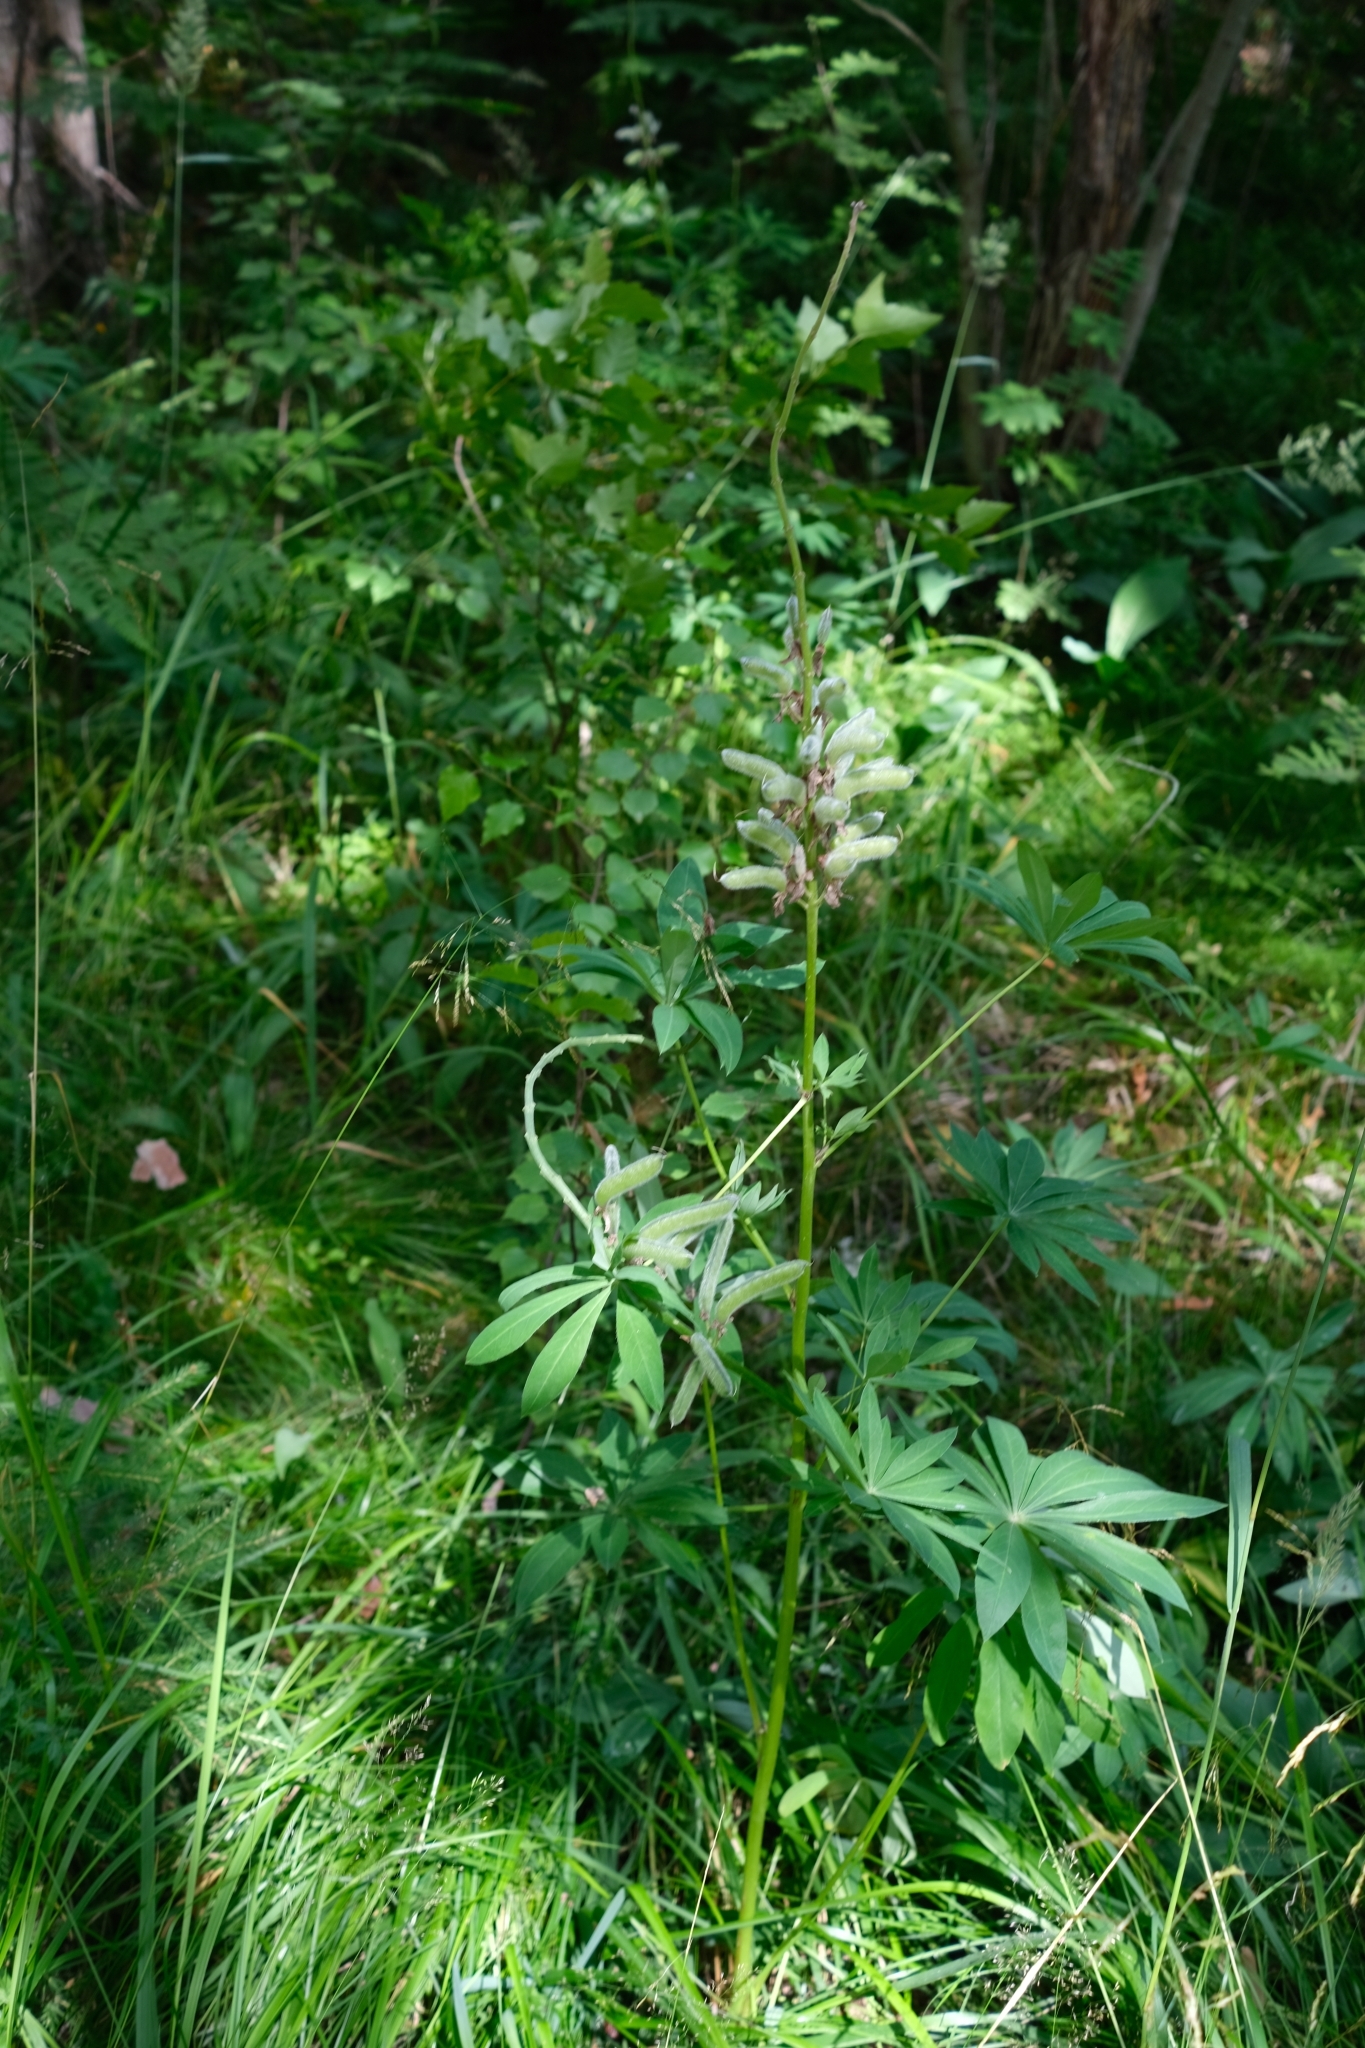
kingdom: Plantae
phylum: Tracheophyta
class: Magnoliopsida
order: Fabales
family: Fabaceae
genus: Lupinus
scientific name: Lupinus polyphyllus
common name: Garden lupin
